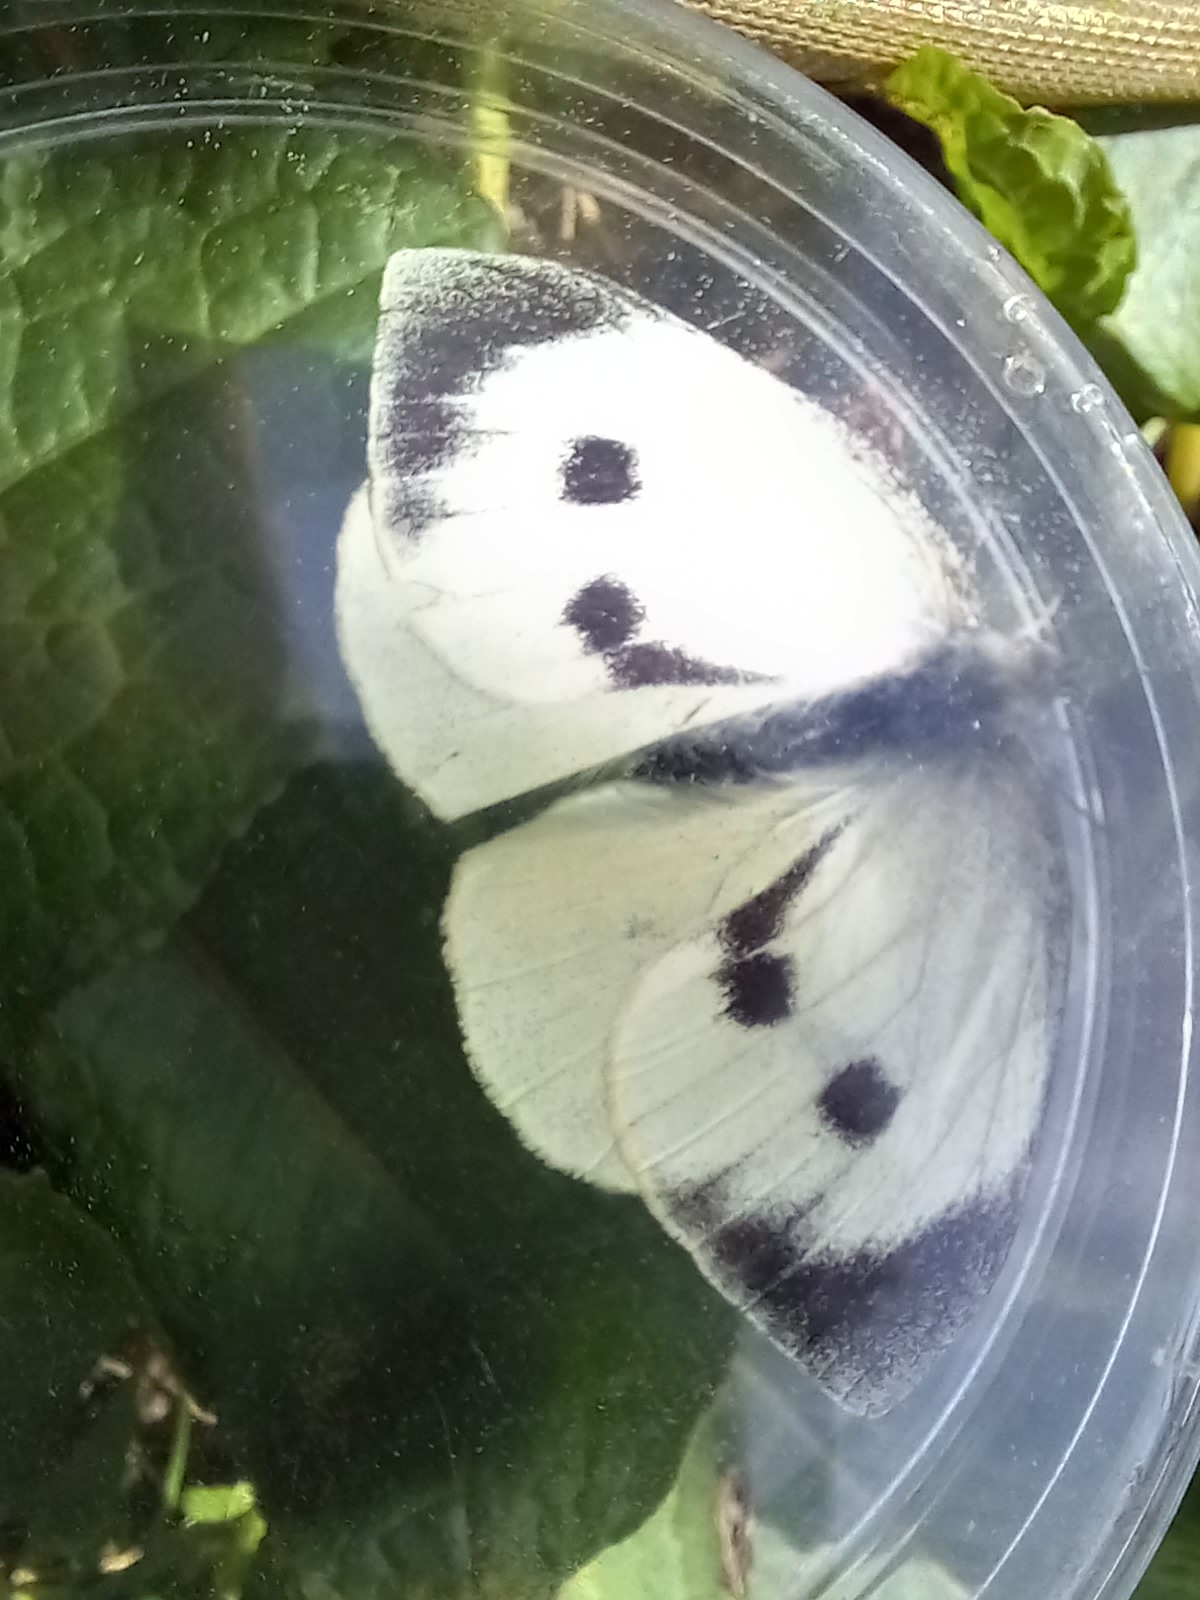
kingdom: Animalia
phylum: Arthropoda
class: Insecta
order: Lepidoptera
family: Pieridae
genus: Pieris
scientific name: Pieris brassicae
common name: Large white
